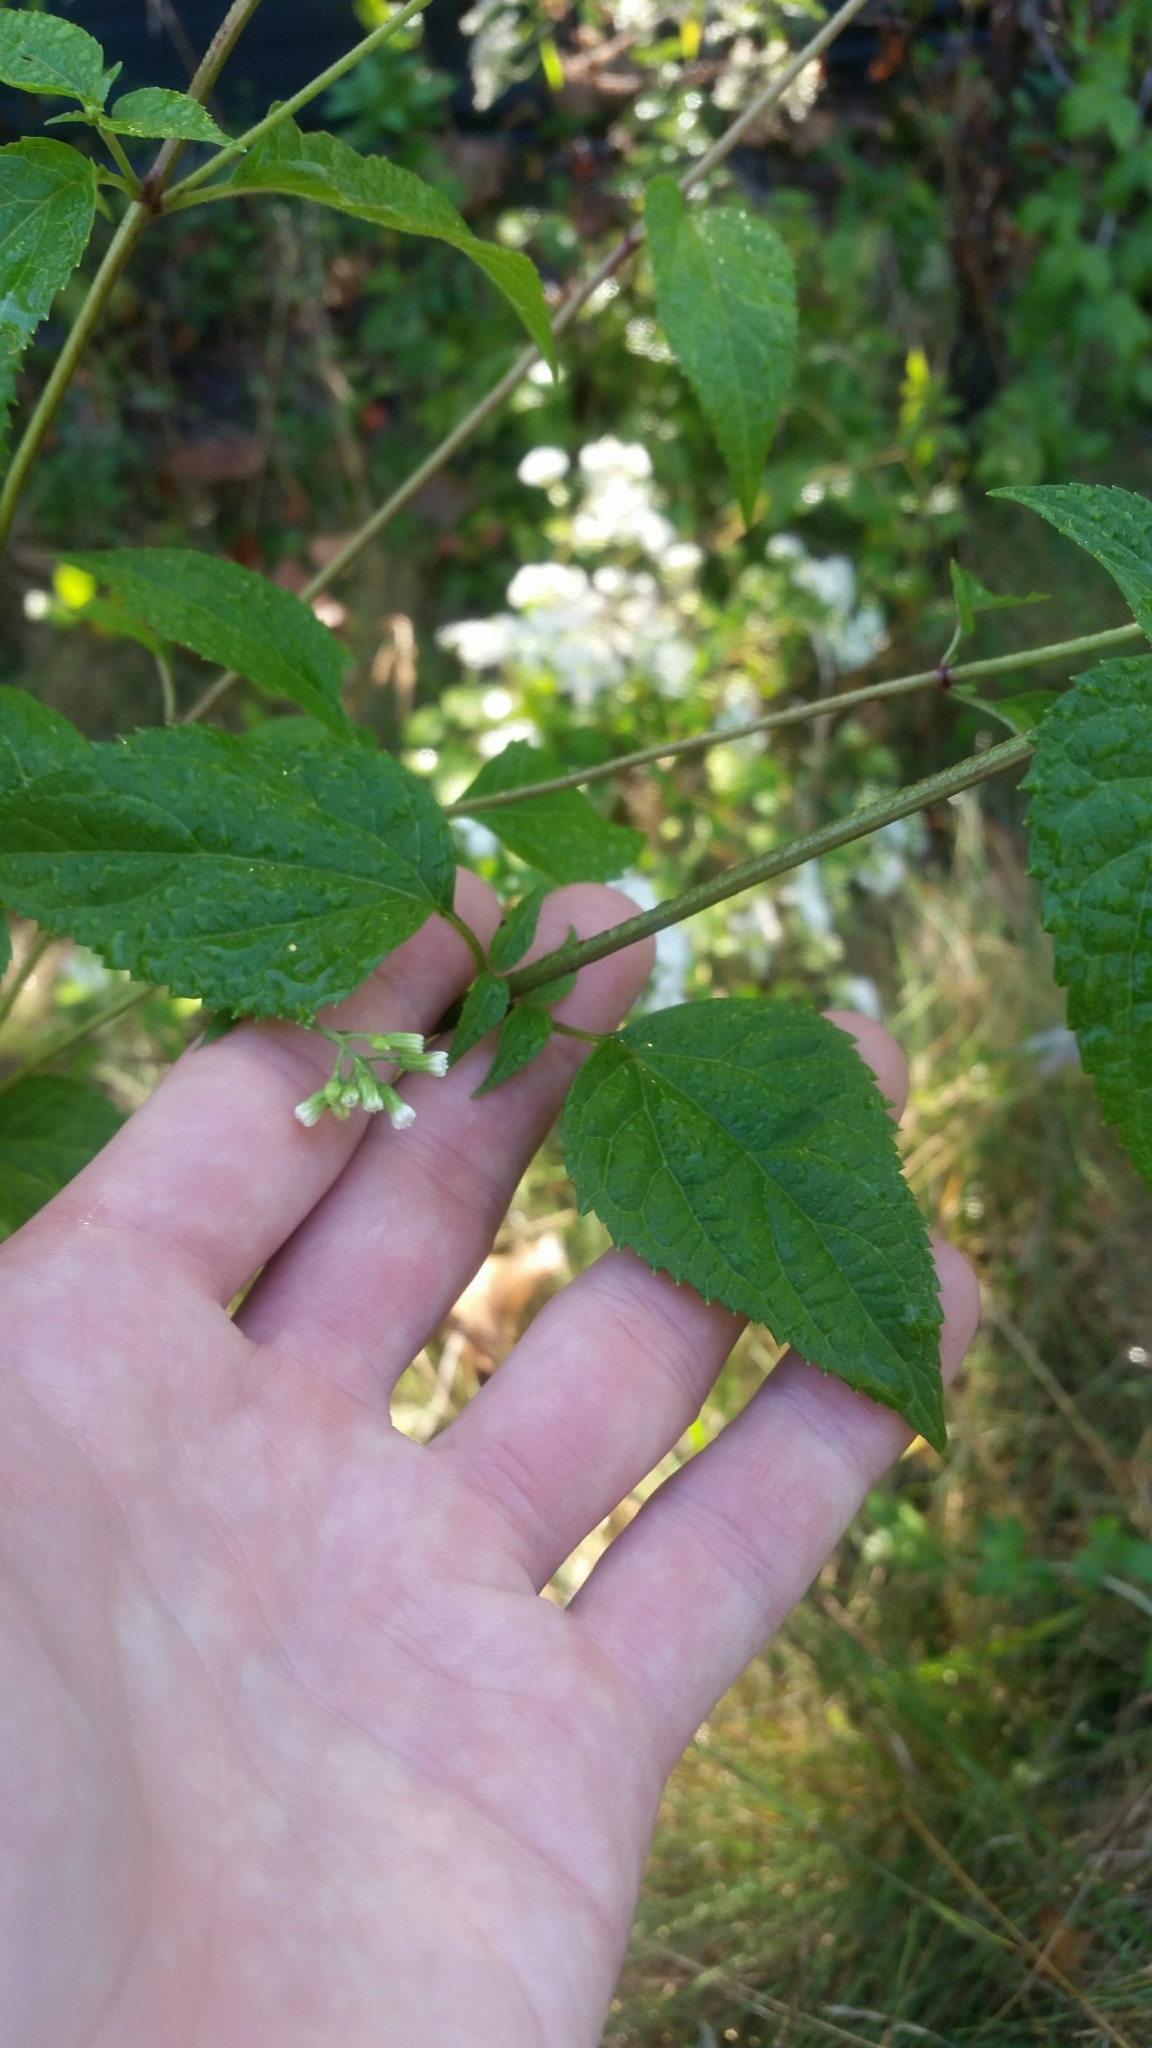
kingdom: Plantae
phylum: Tracheophyta
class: Magnoliopsida
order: Asterales
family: Asteraceae
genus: Ageratina
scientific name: Ageratina altissima
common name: White snakeroot
